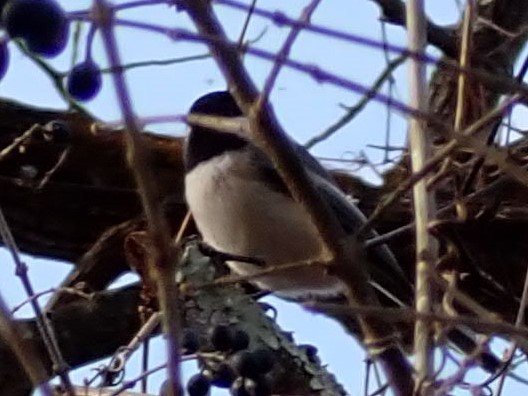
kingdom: Animalia
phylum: Chordata
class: Aves
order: Passeriformes
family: Paridae
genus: Poecile
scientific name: Poecile atricapillus
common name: Black-capped chickadee
